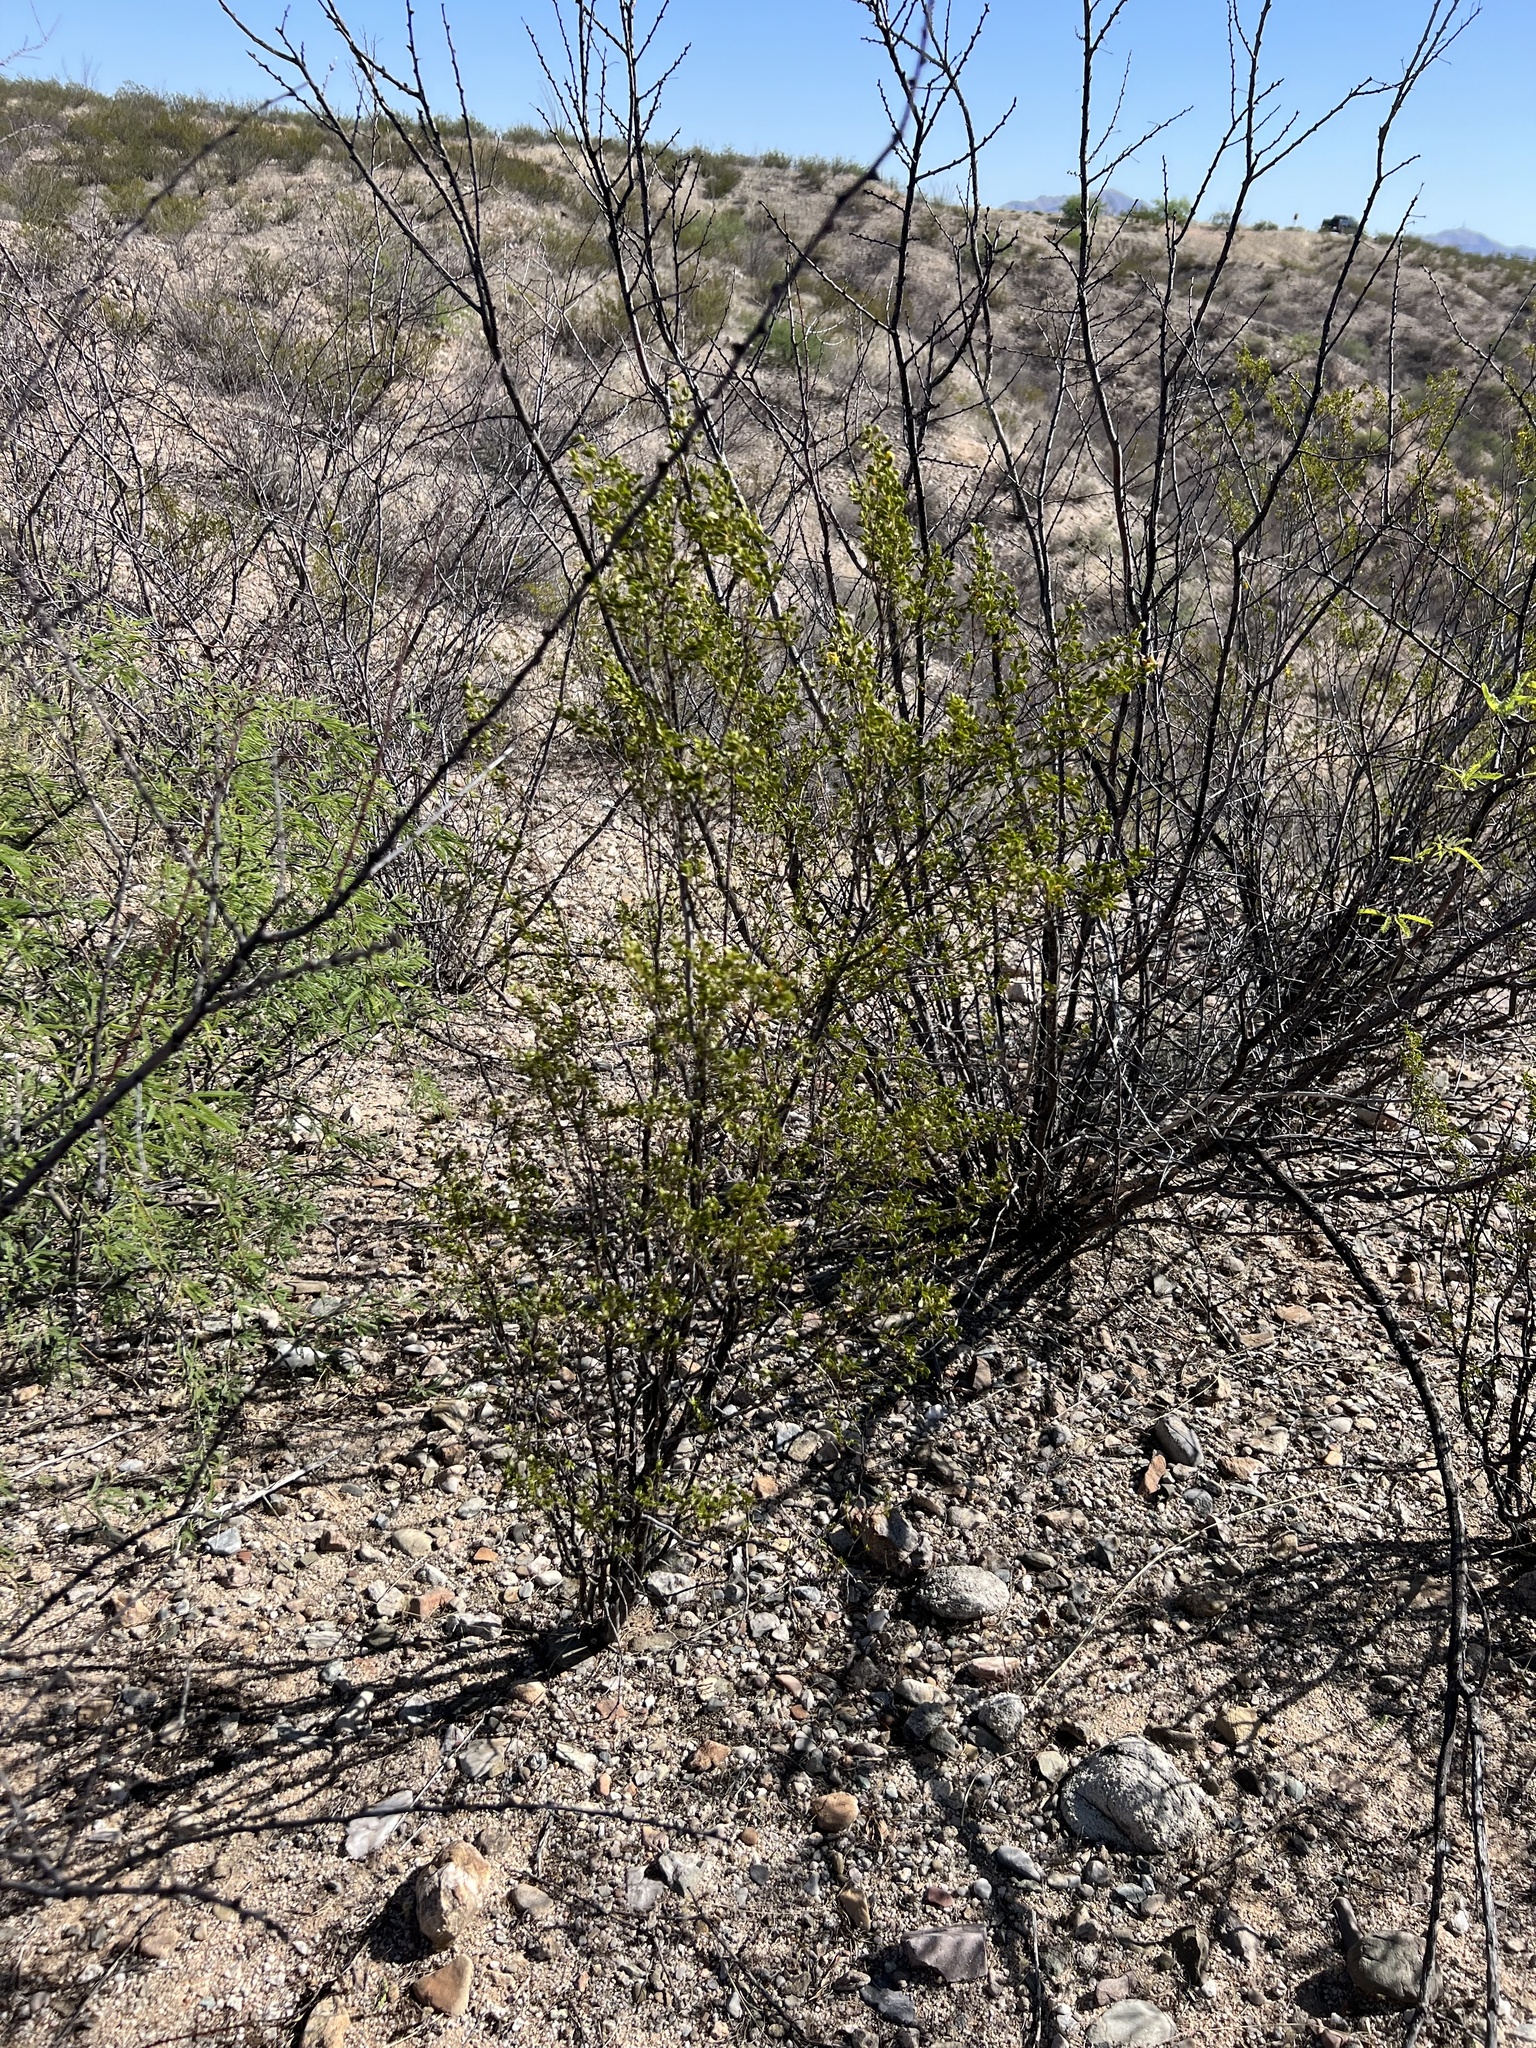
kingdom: Plantae
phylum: Tracheophyta
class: Magnoliopsida
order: Zygophyllales
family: Zygophyllaceae
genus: Larrea
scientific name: Larrea tridentata
